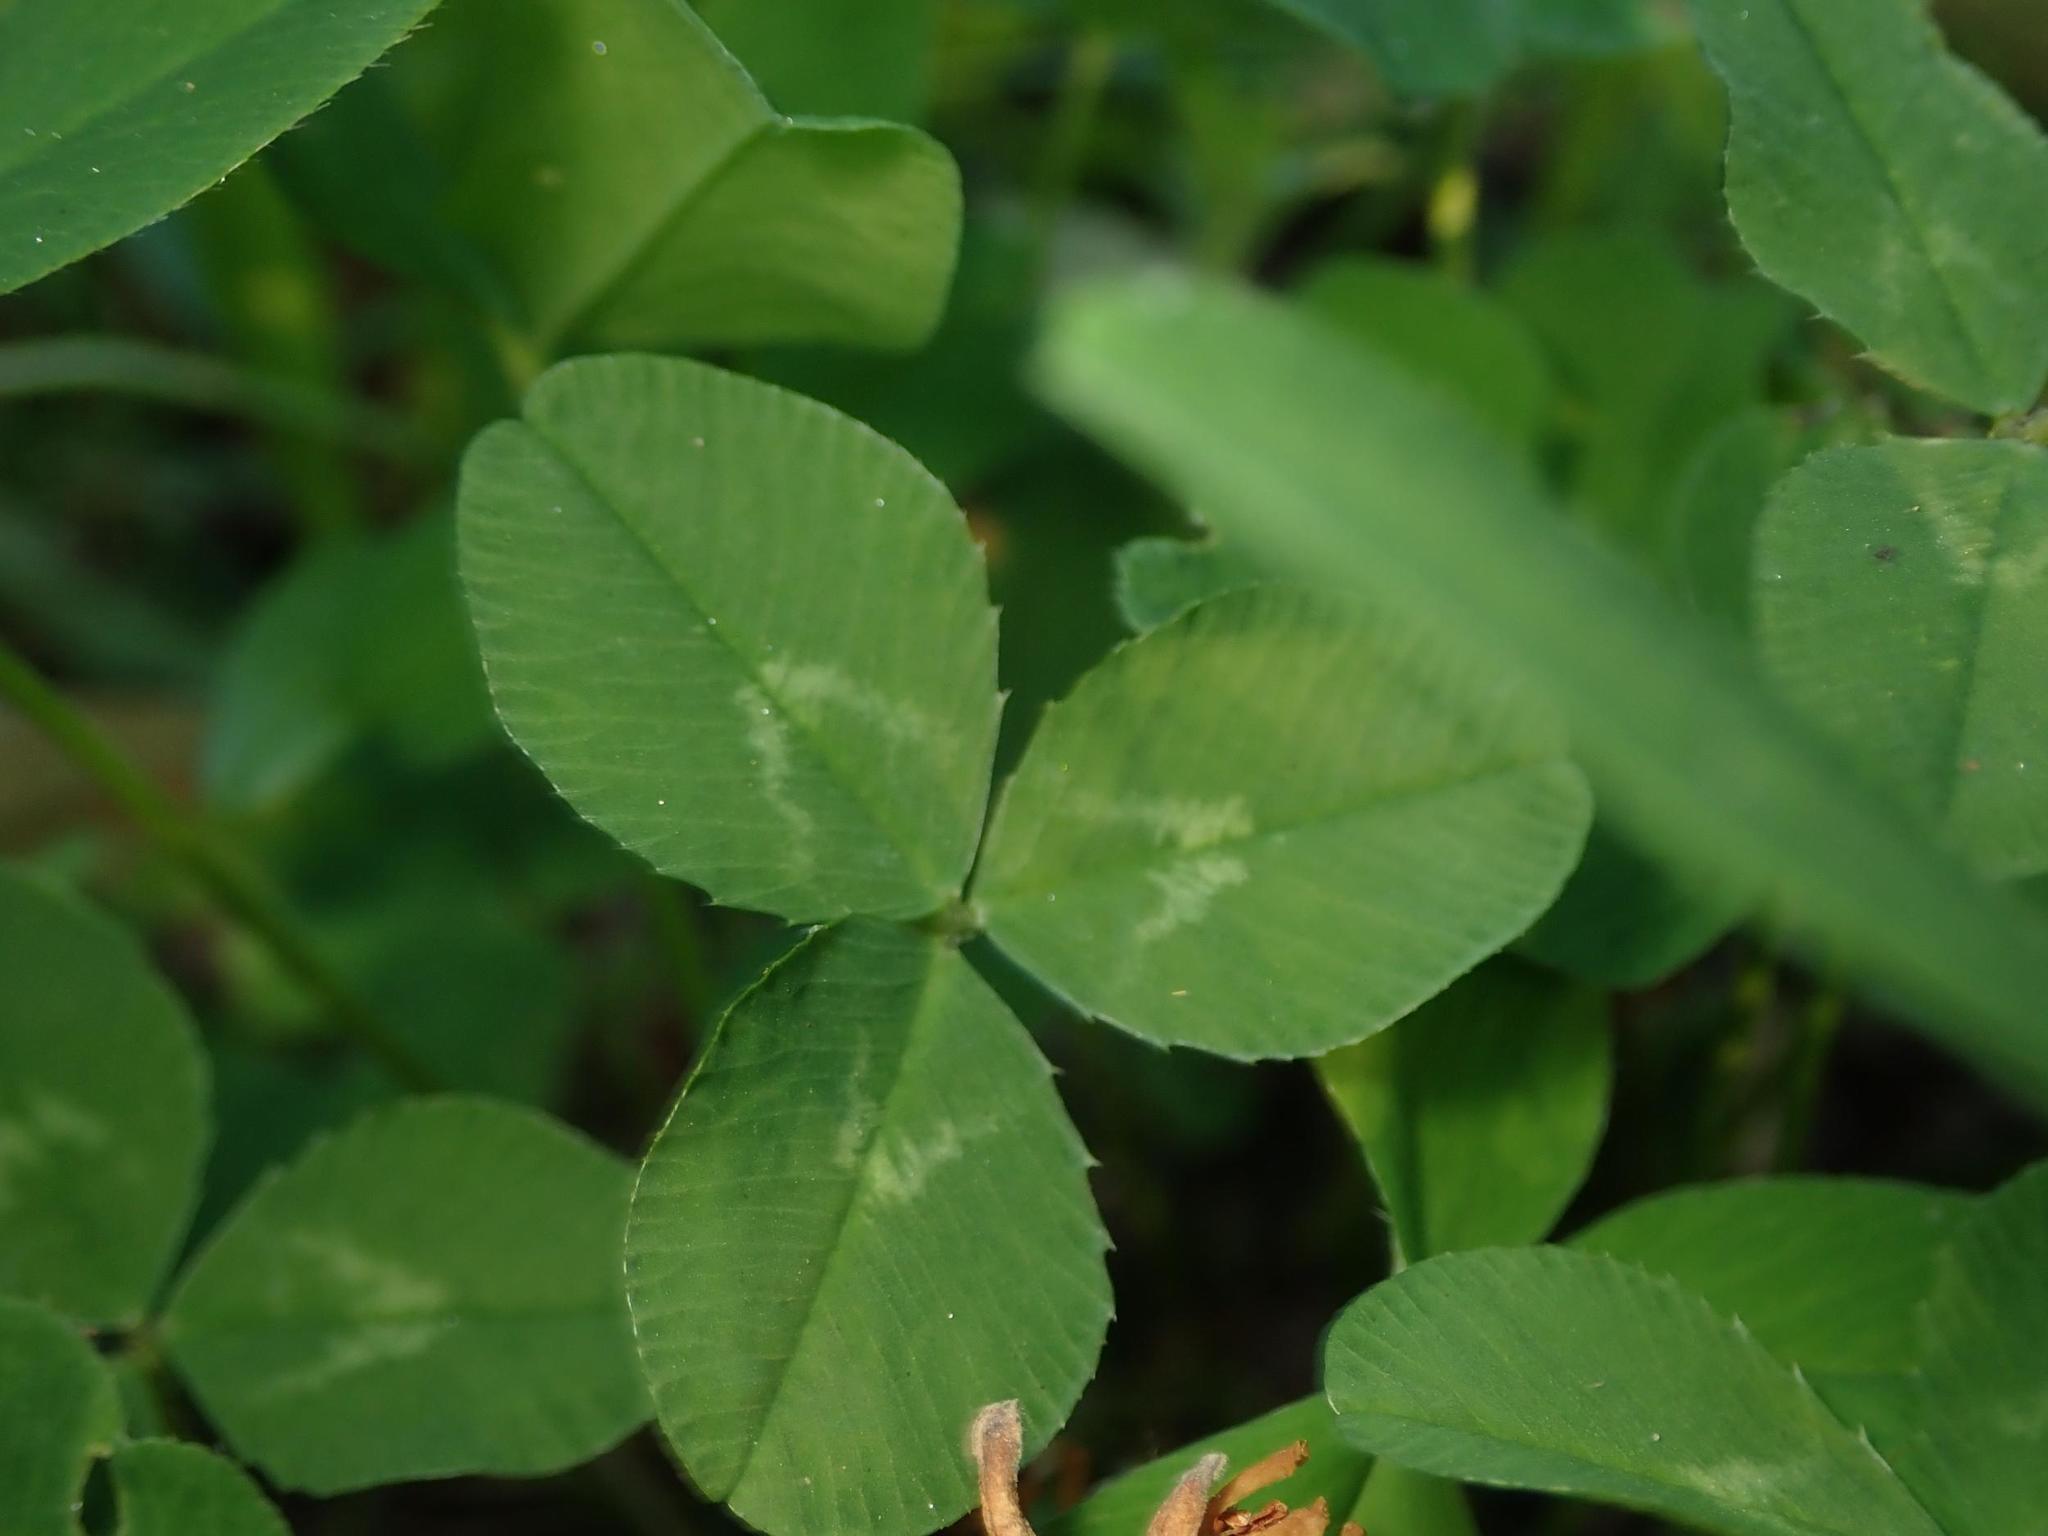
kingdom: Plantae
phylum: Tracheophyta
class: Magnoliopsida
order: Fabales
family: Fabaceae
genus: Trifolium
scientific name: Trifolium repens
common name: White clover
